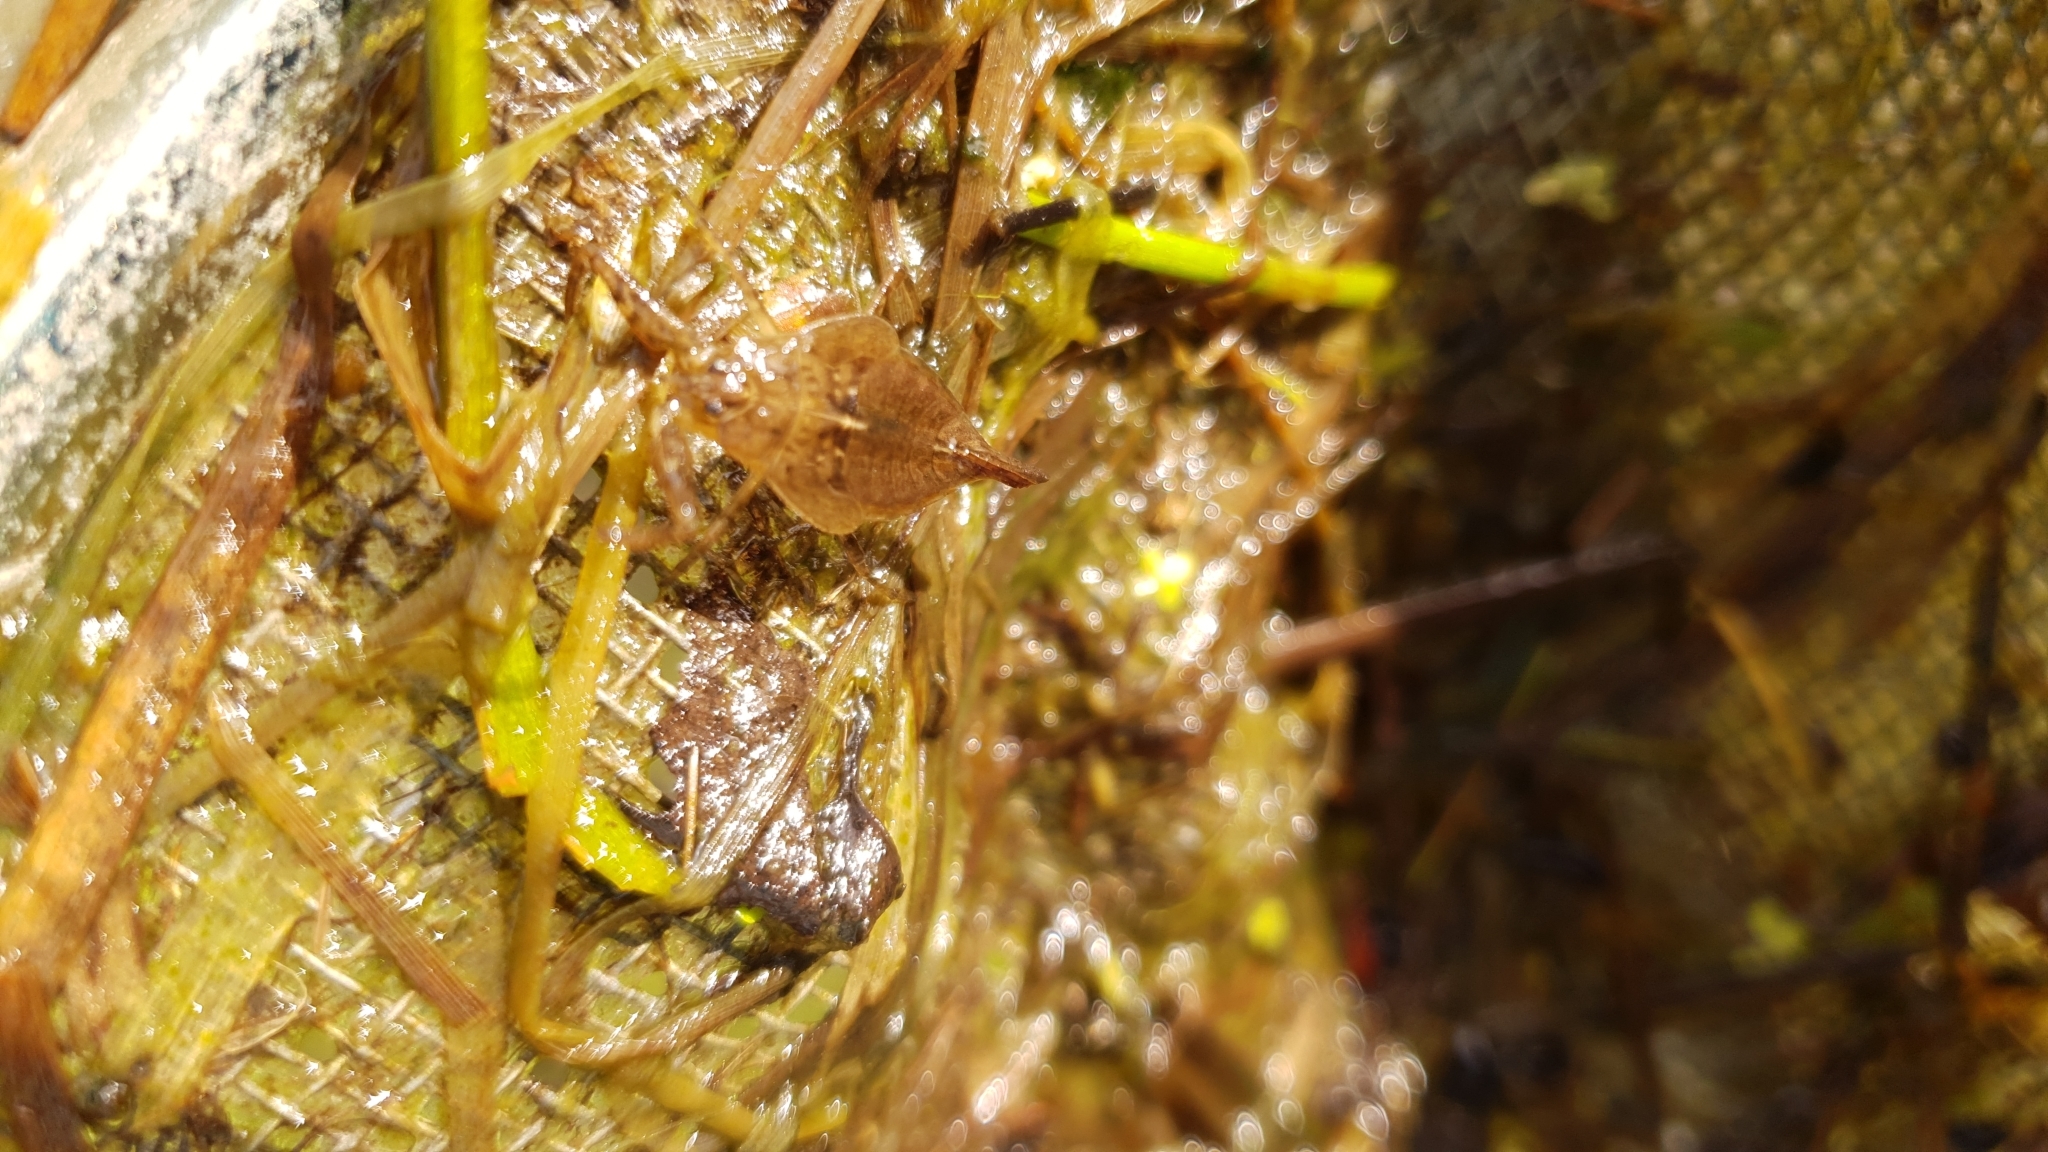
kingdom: Animalia
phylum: Arthropoda
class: Insecta
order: Hemiptera
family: Nepidae
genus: Nepa
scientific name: Nepa cinerea
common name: Water scorpion
